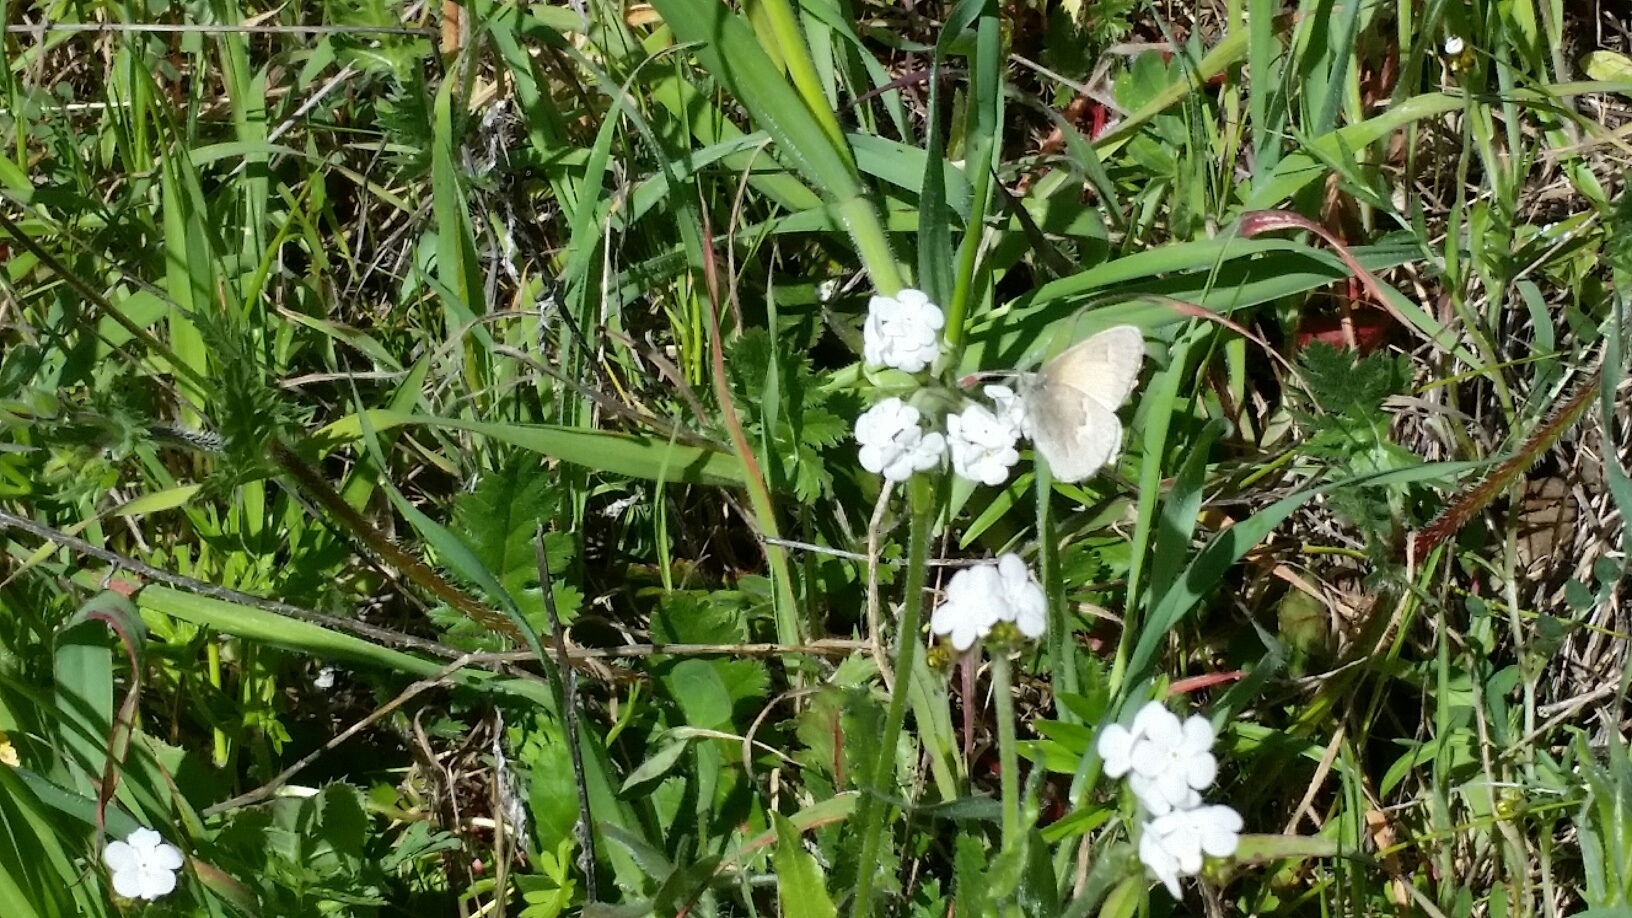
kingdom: Animalia
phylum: Arthropoda
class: Insecta
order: Lepidoptera
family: Nymphalidae
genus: Coenonympha
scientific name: Coenonympha california
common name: Common ringlet
